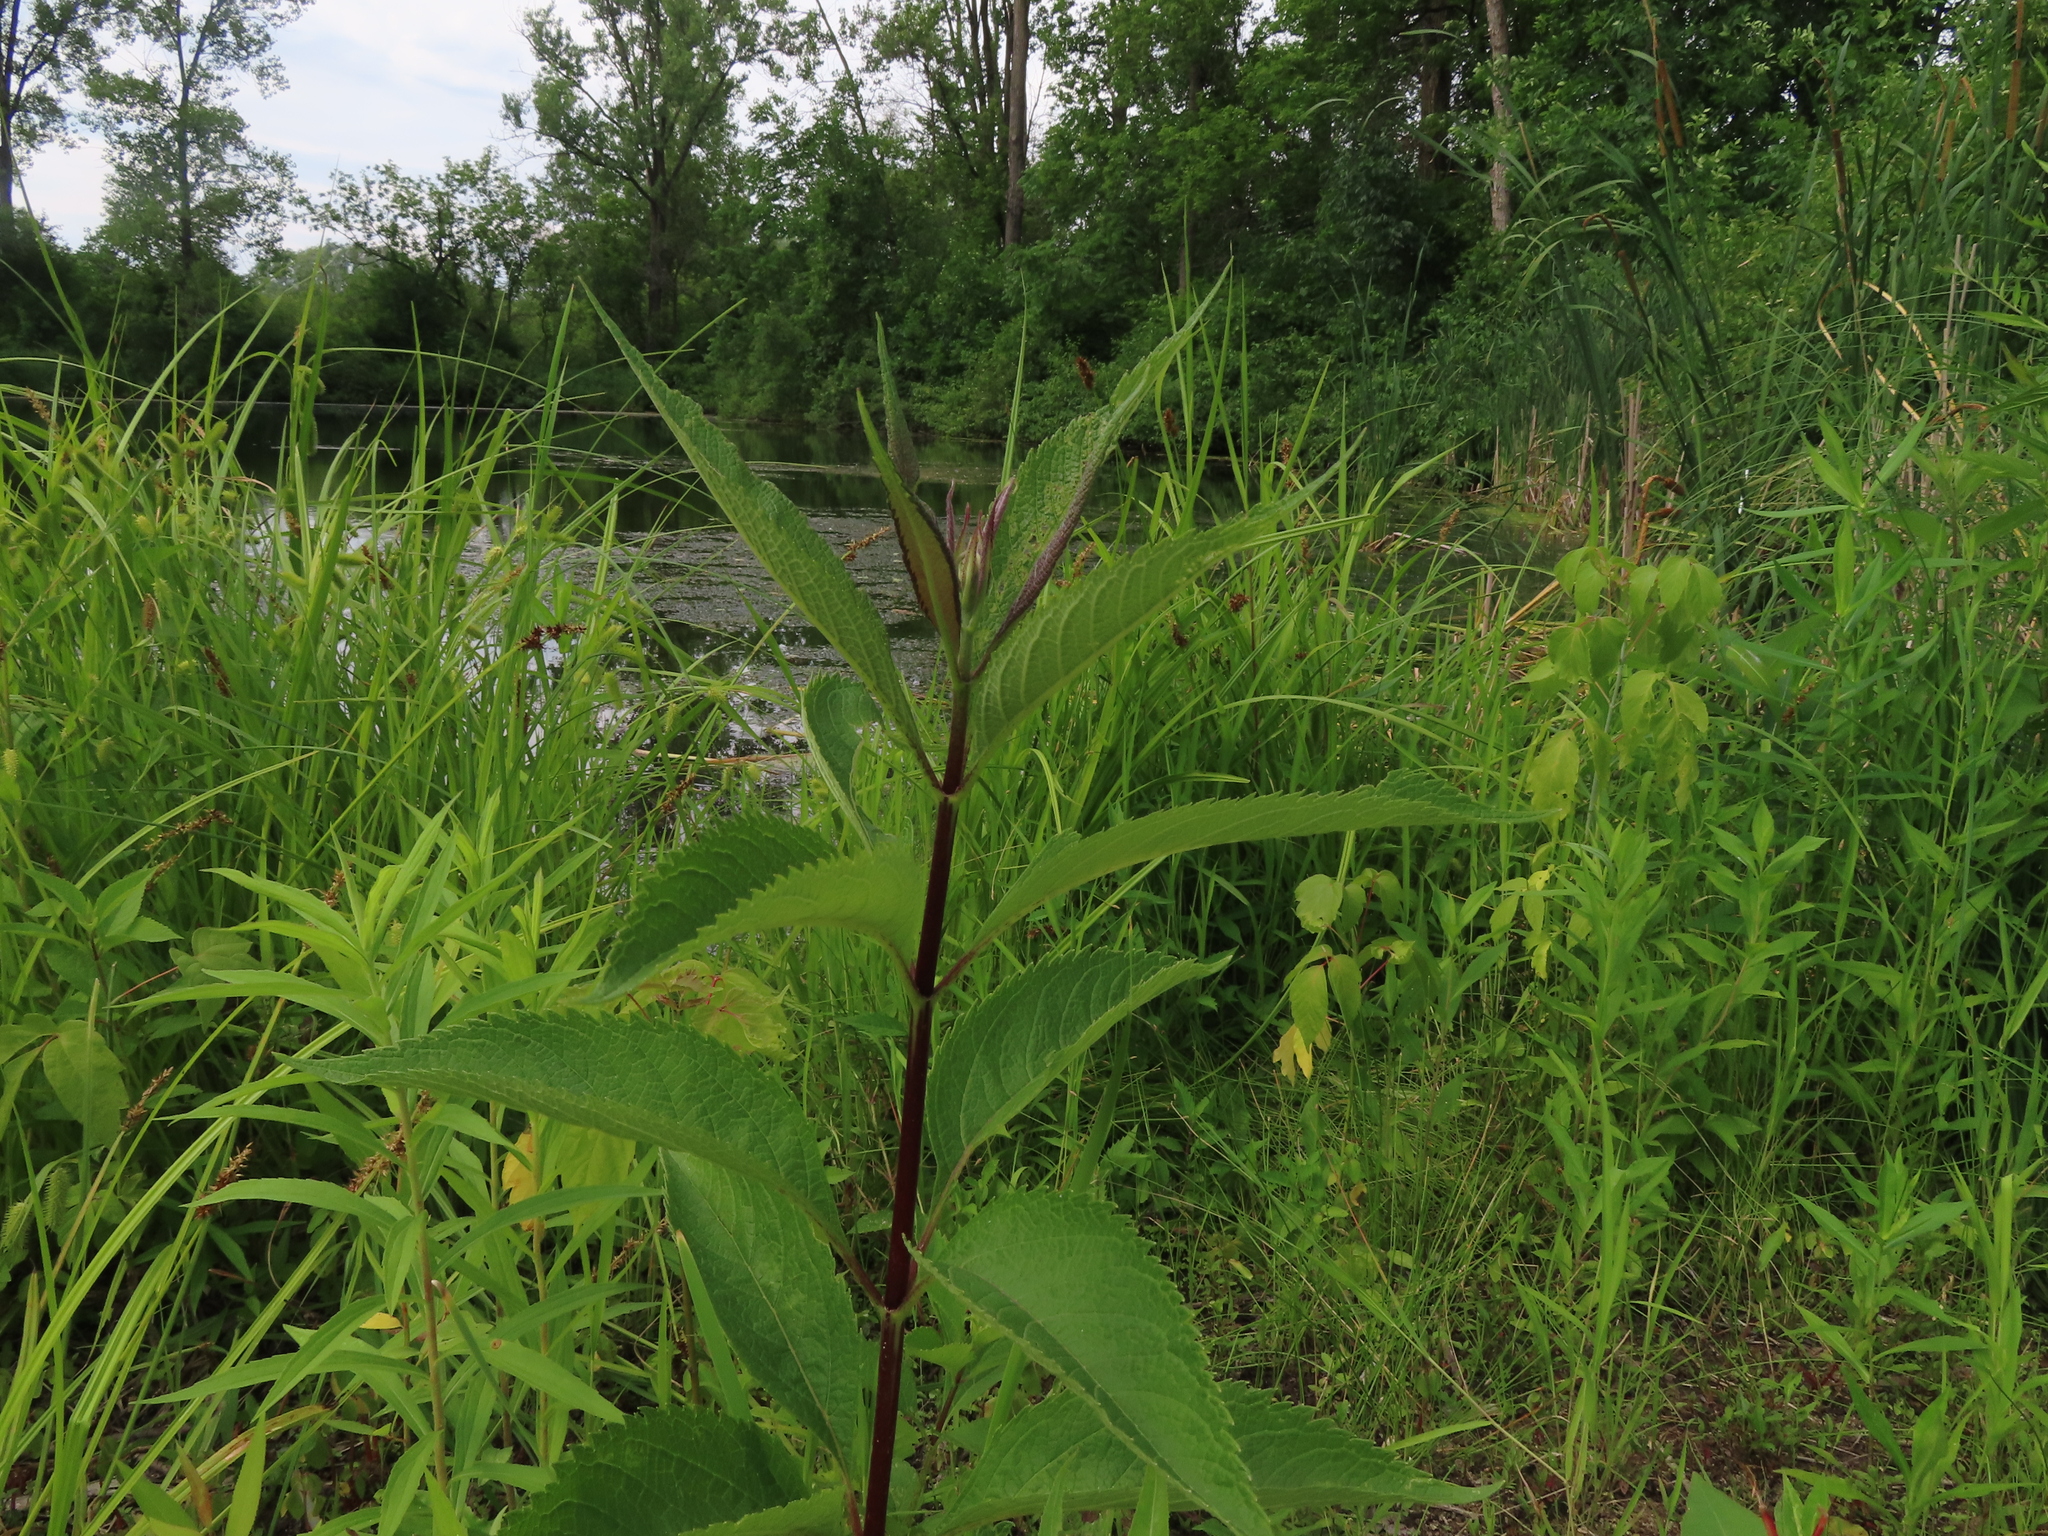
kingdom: Plantae
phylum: Tracheophyta
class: Magnoliopsida
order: Asterales
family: Asteraceae
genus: Eutrochium
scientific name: Eutrochium maculatum
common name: Spotted joe pye weed
